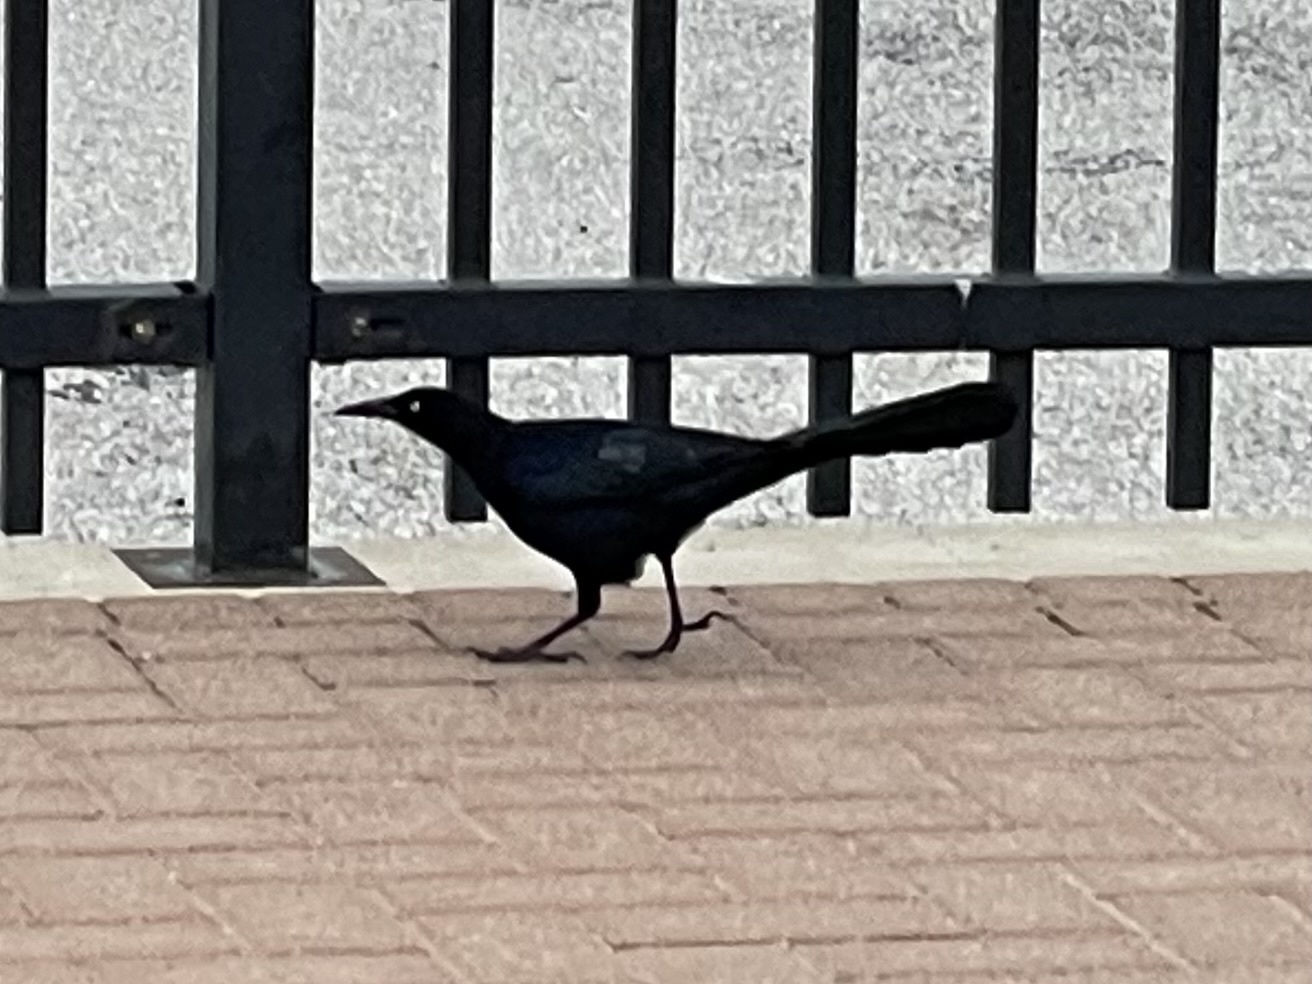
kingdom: Animalia
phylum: Chordata
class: Aves
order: Passeriformes
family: Icteridae
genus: Quiscalus
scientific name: Quiscalus mexicanus
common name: Great-tailed grackle
